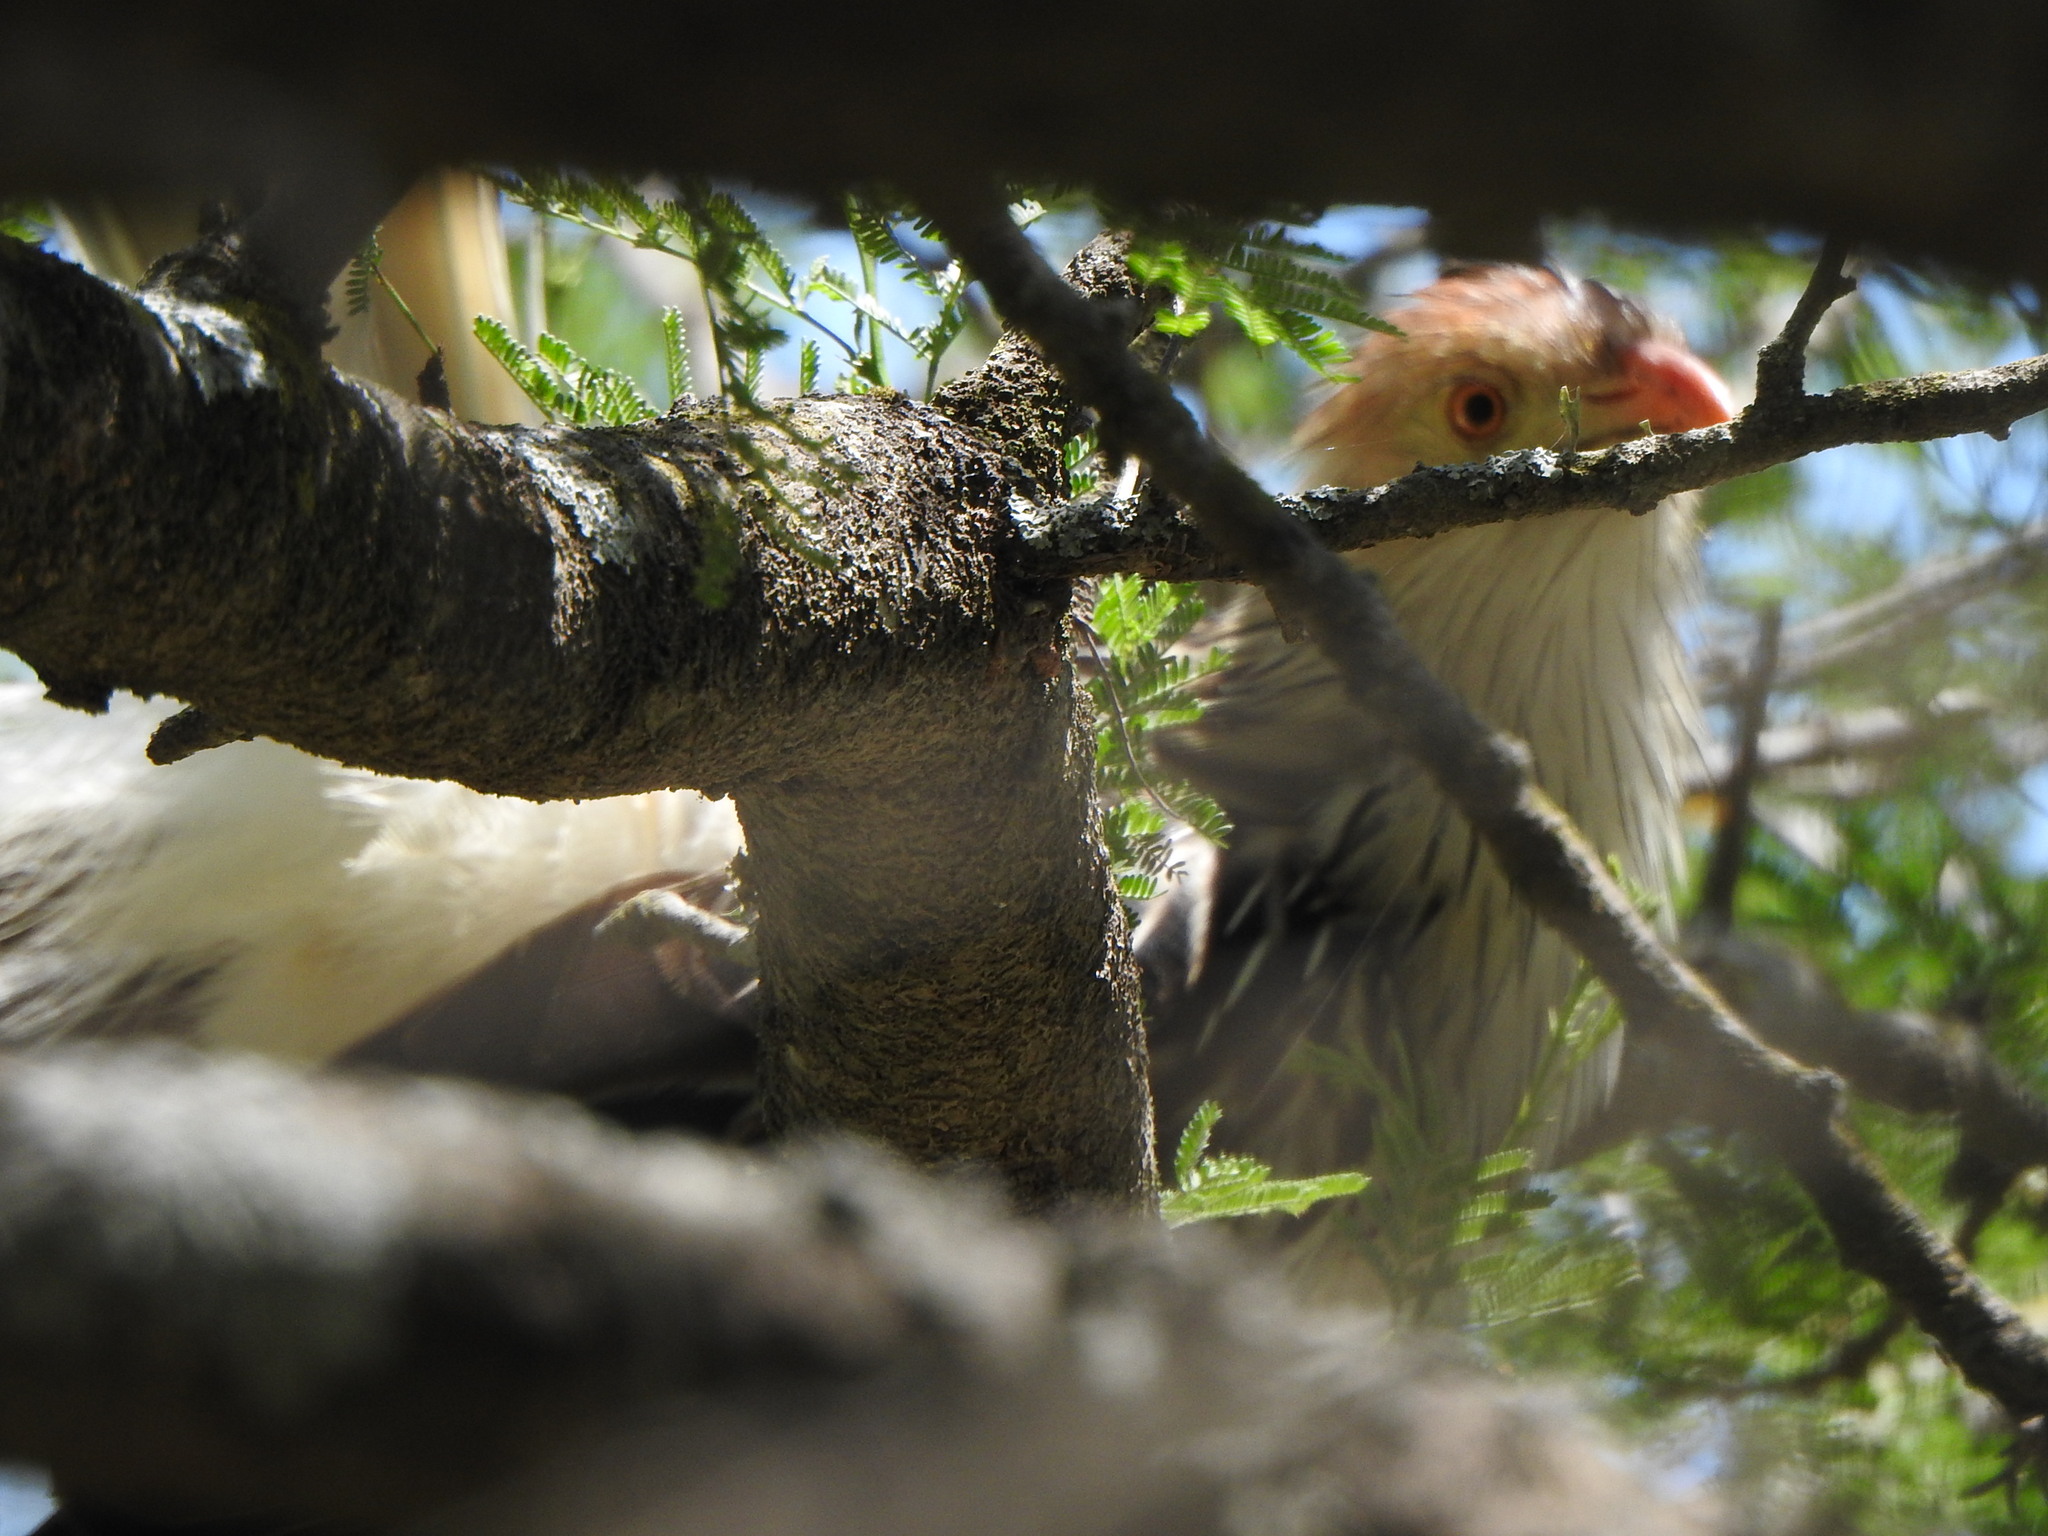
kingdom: Animalia
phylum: Chordata
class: Aves
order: Cuculiformes
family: Cuculidae
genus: Guira
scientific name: Guira guira
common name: Guira cuckoo
